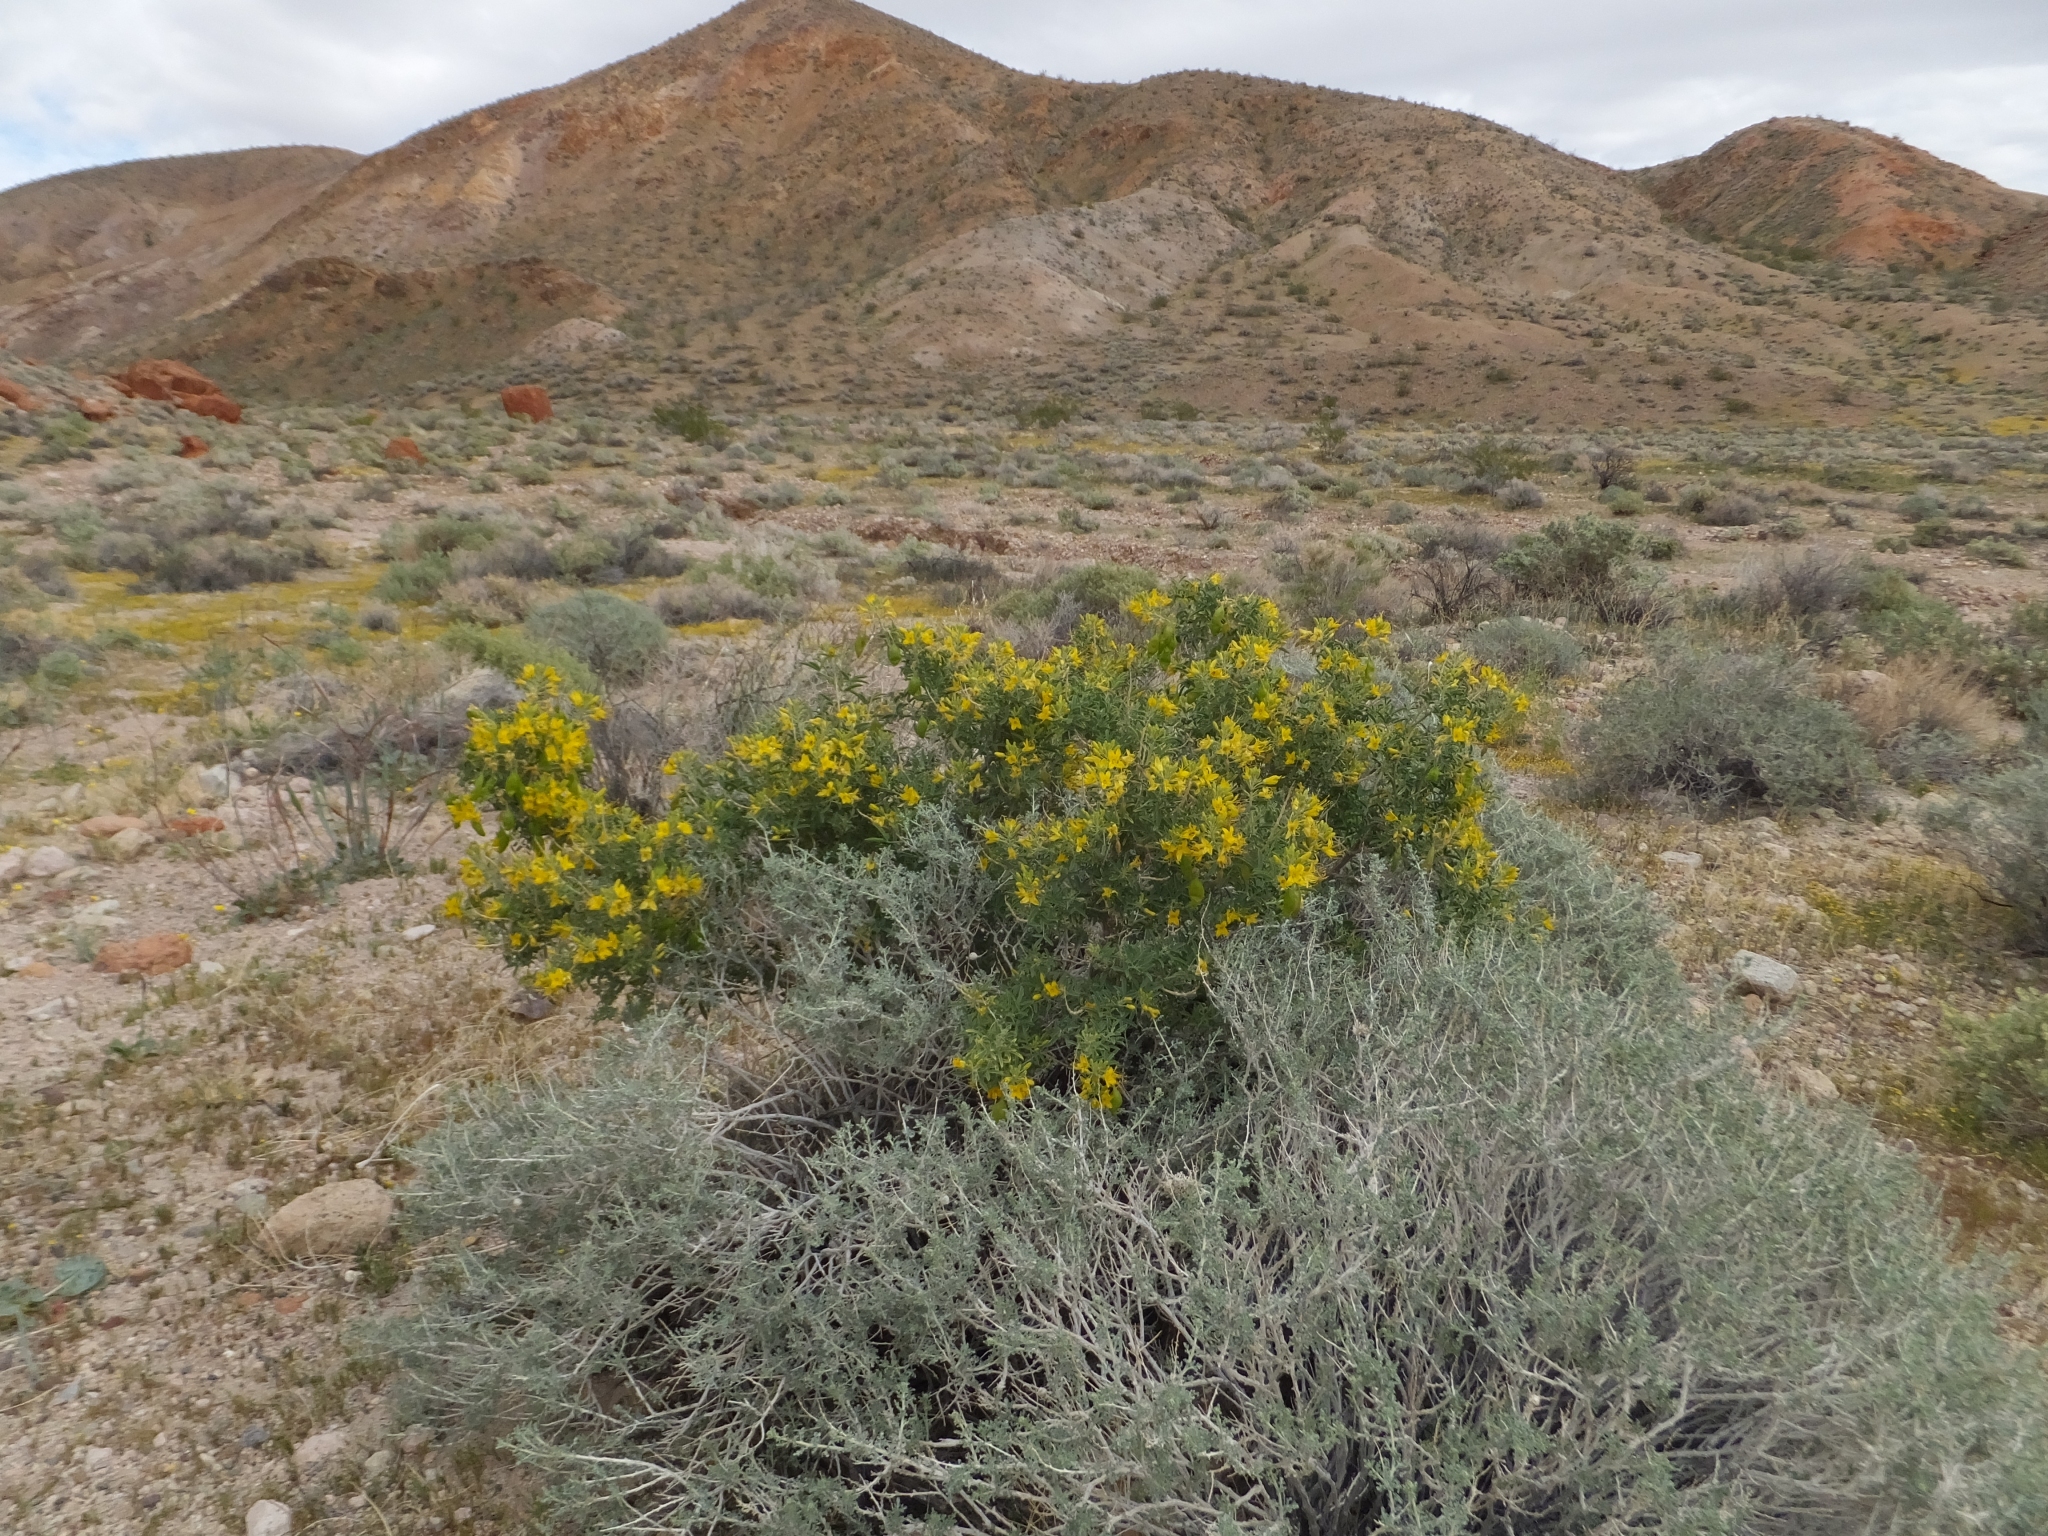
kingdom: Plantae
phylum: Tracheophyta
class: Magnoliopsida
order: Brassicales
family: Cleomaceae
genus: Cleomella
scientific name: Cleomella arborea
